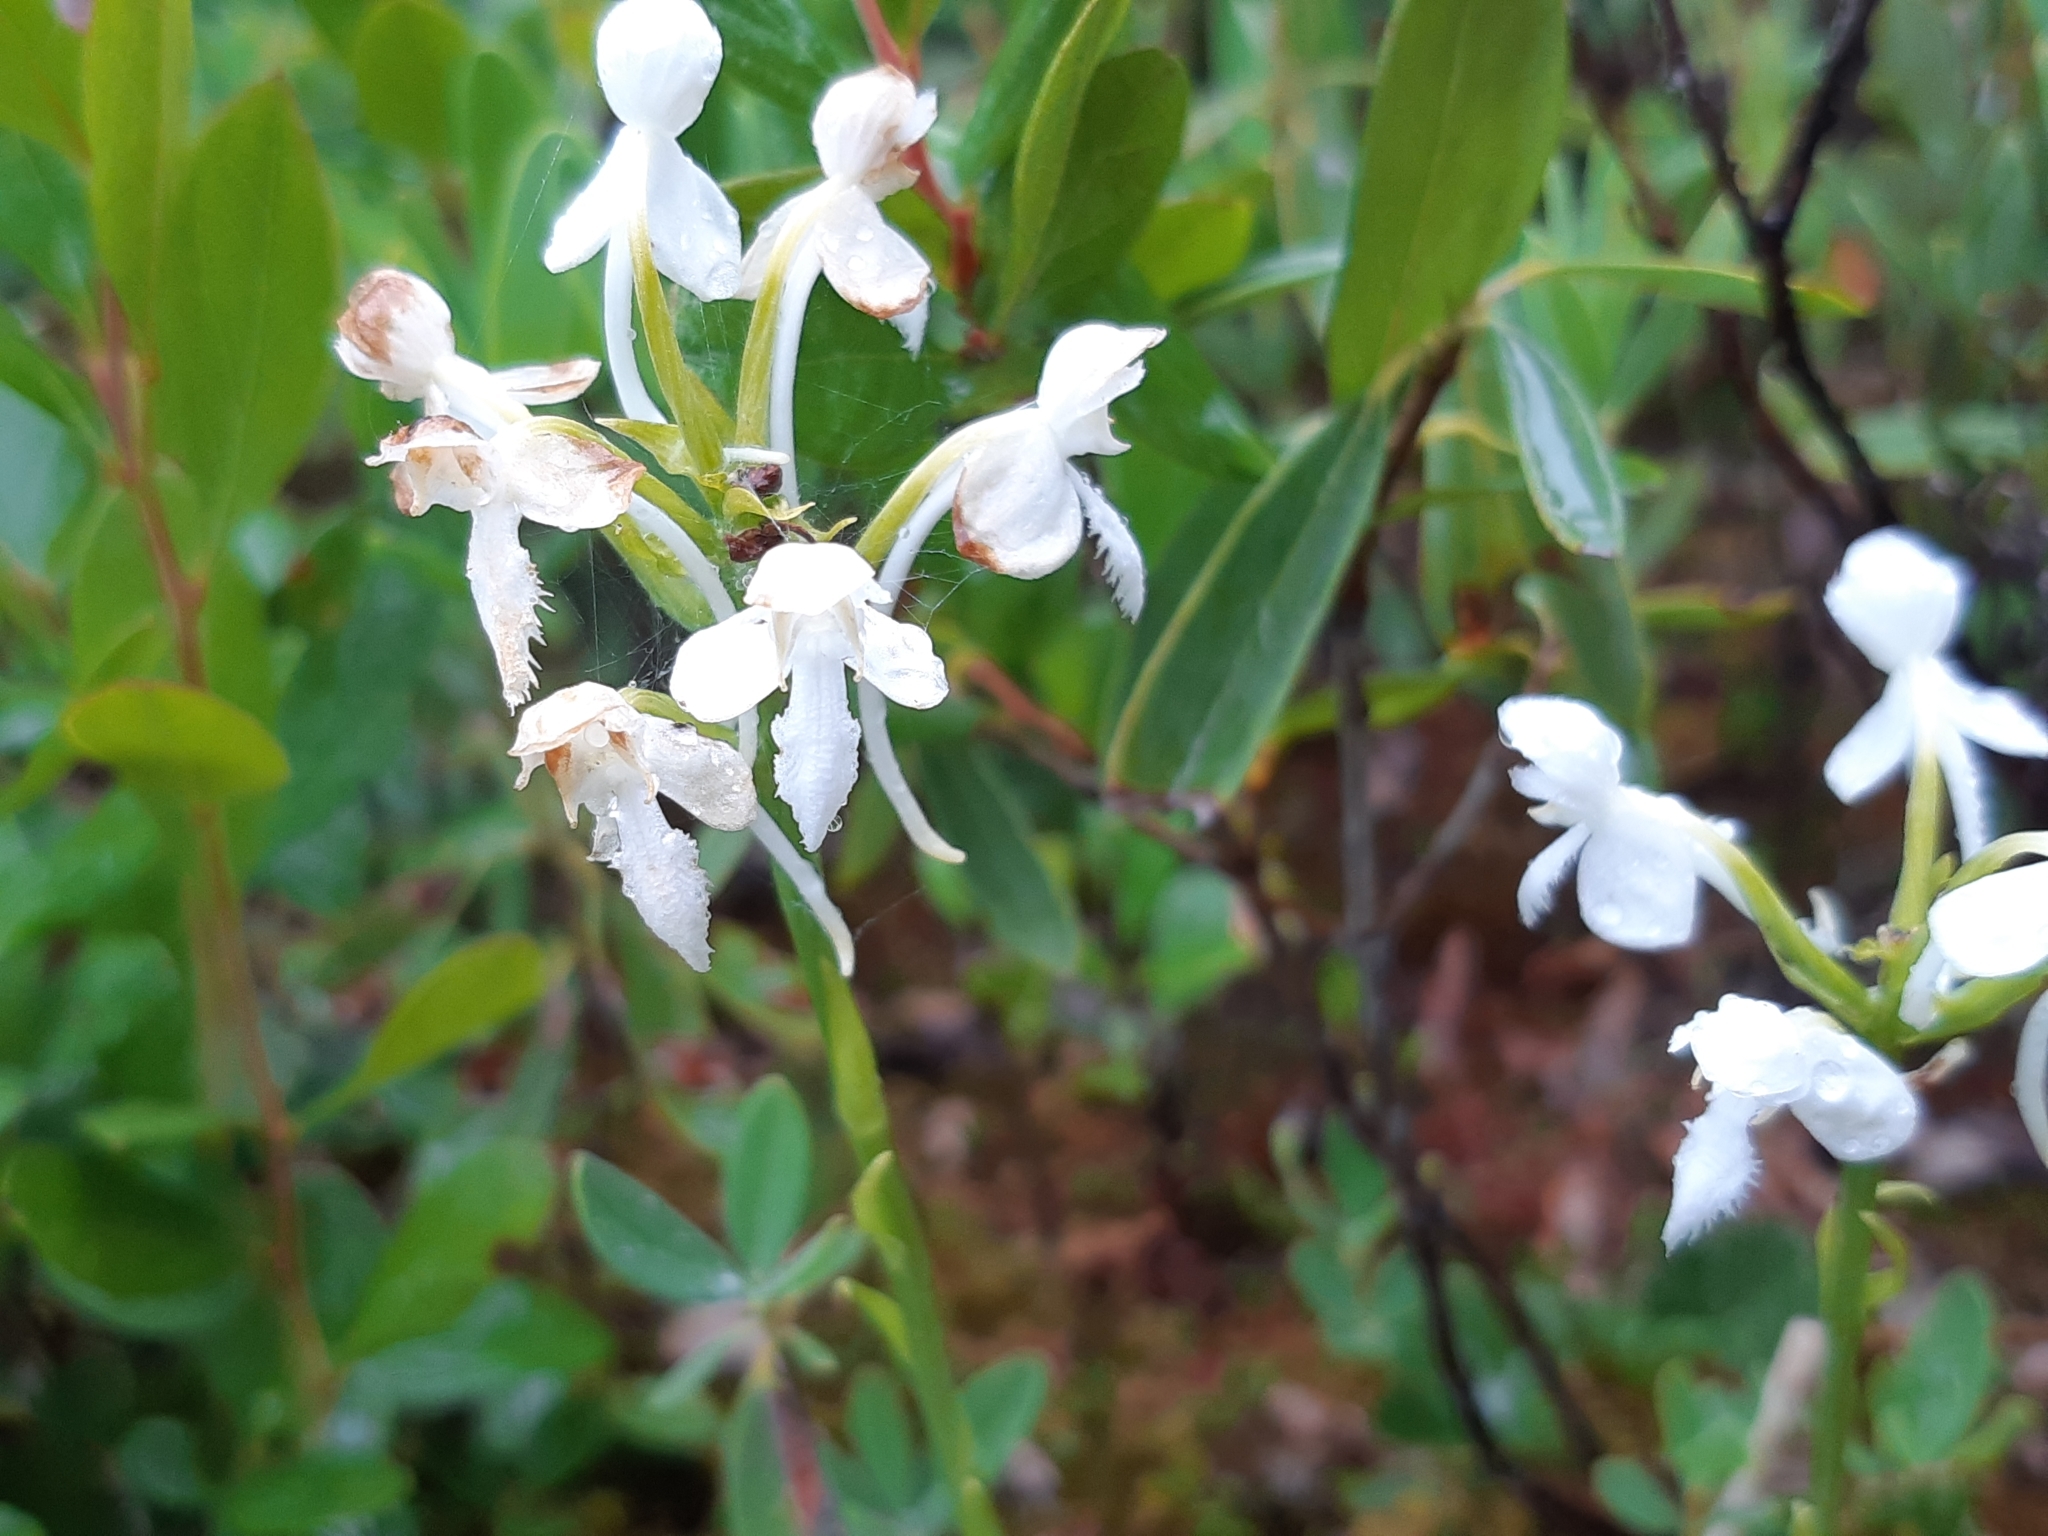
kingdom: Plantae
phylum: Tracheophyta
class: Liliopsida
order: Asparagales
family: Orchidaceae
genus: Platanthera
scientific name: Platanthera blephariglottis
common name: White fringed orchid
